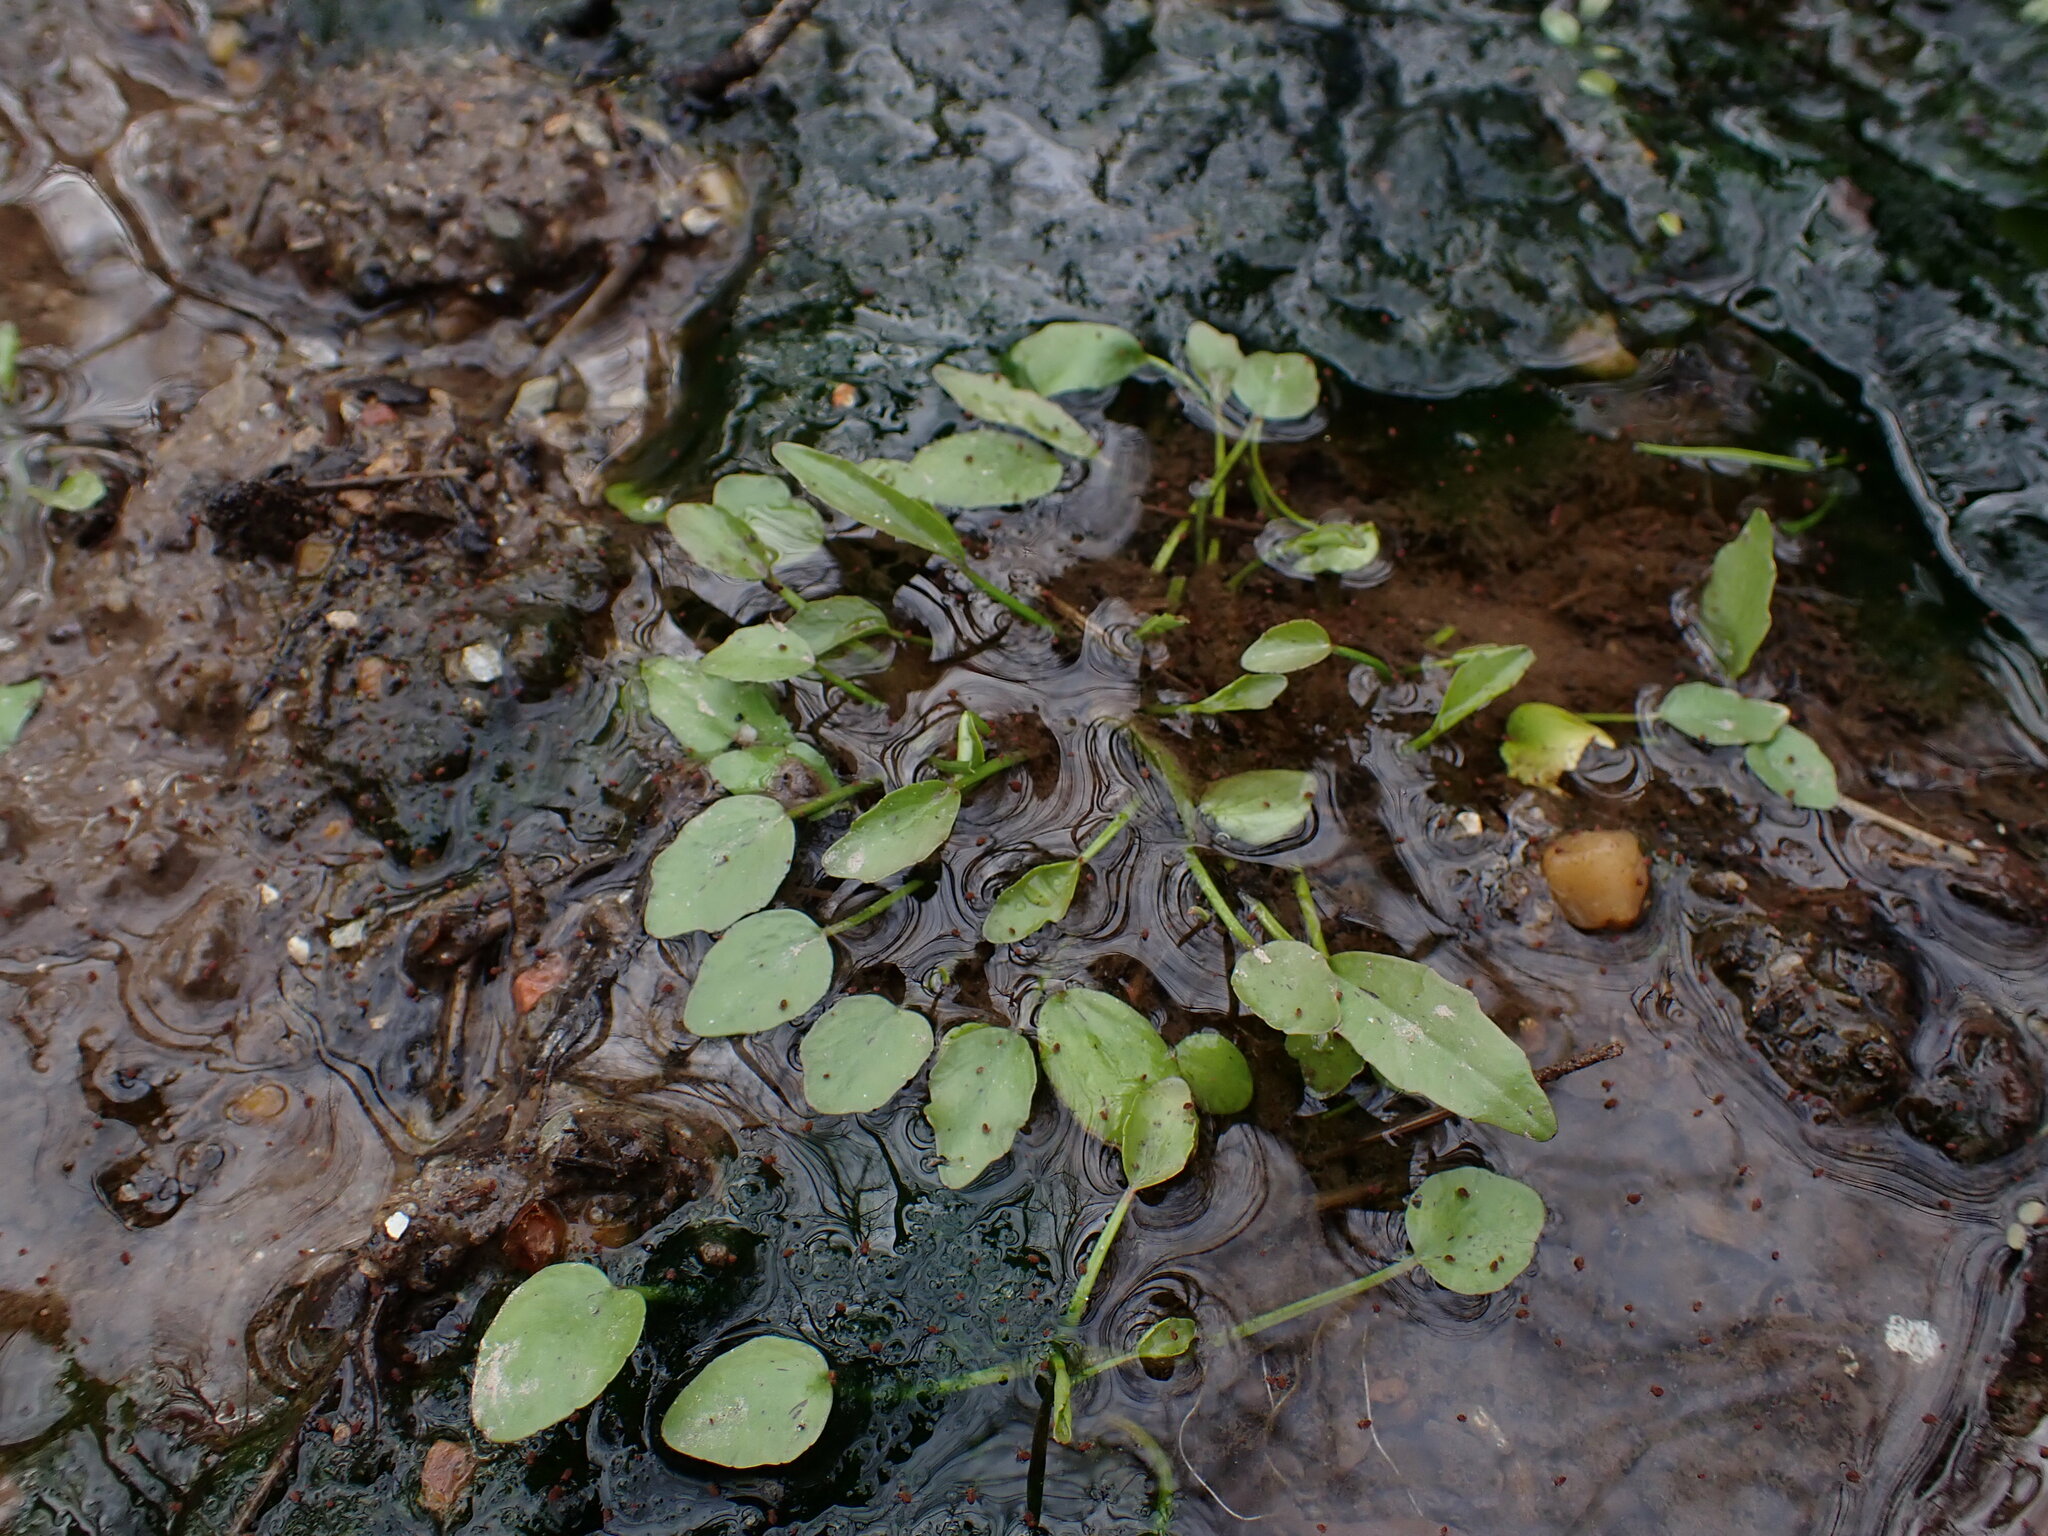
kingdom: Plantae
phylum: Tracheophyta
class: Magnoliopsida
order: Ranunculales
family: Ranunculaceae
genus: Ranunculus
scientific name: Ranunculus pusillus
